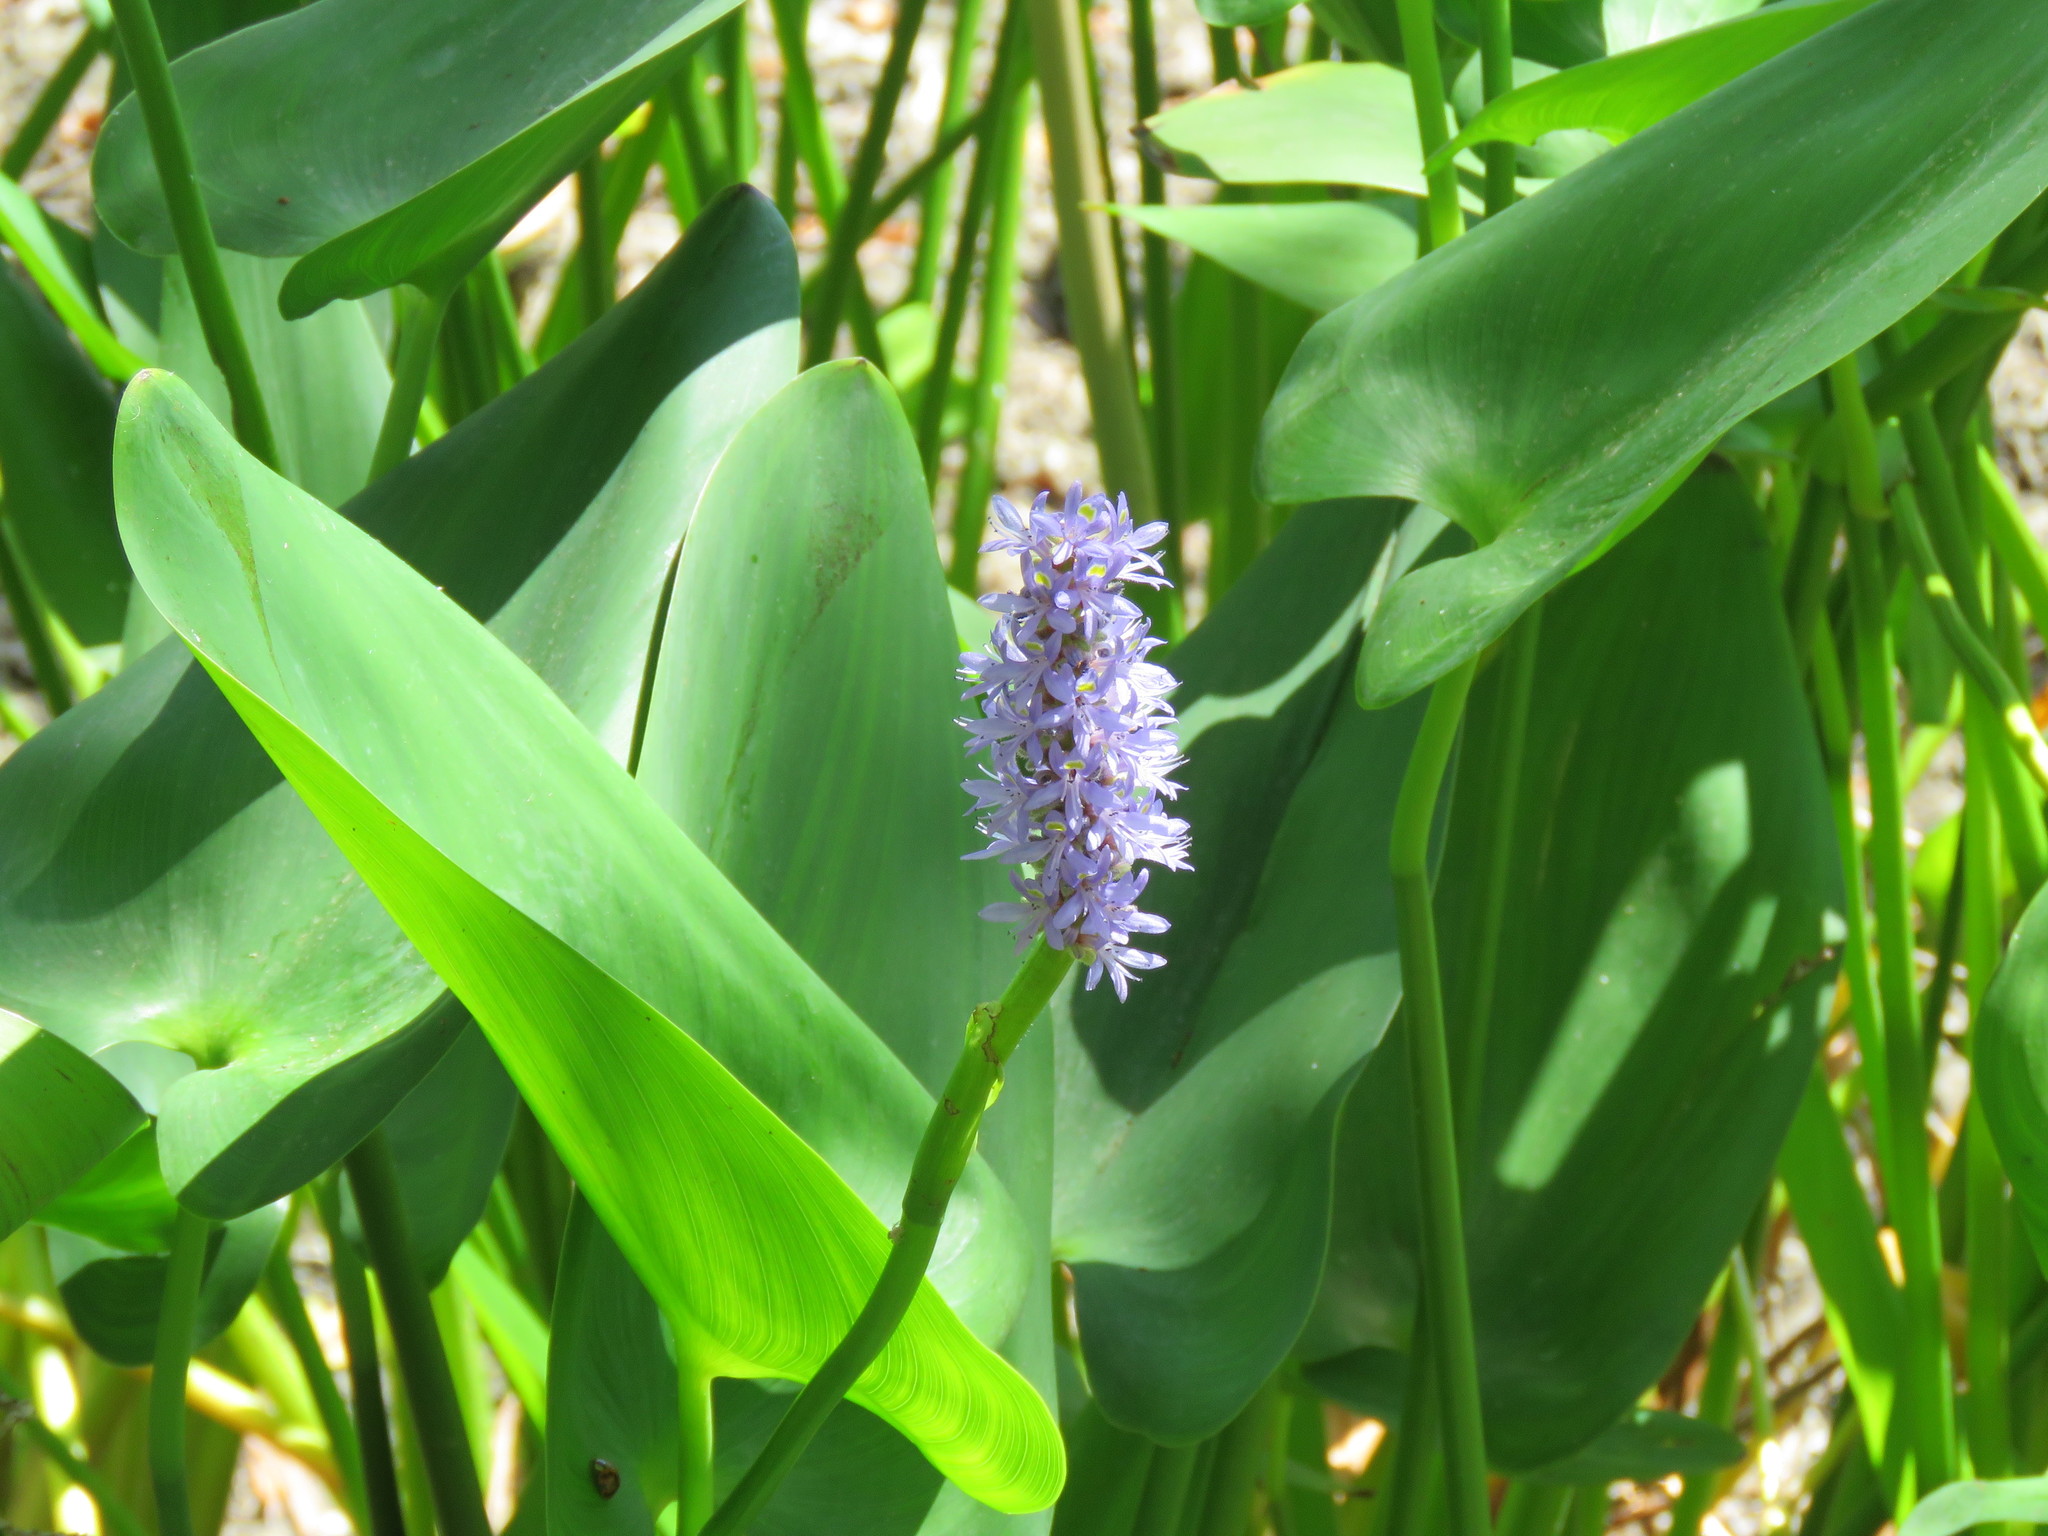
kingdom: Plantae
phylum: Tracheophyta
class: Liliopsida
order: Commelinales
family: Pontederiaceae
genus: Pontederia
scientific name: Pontederia cordata
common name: Pickerelweed
